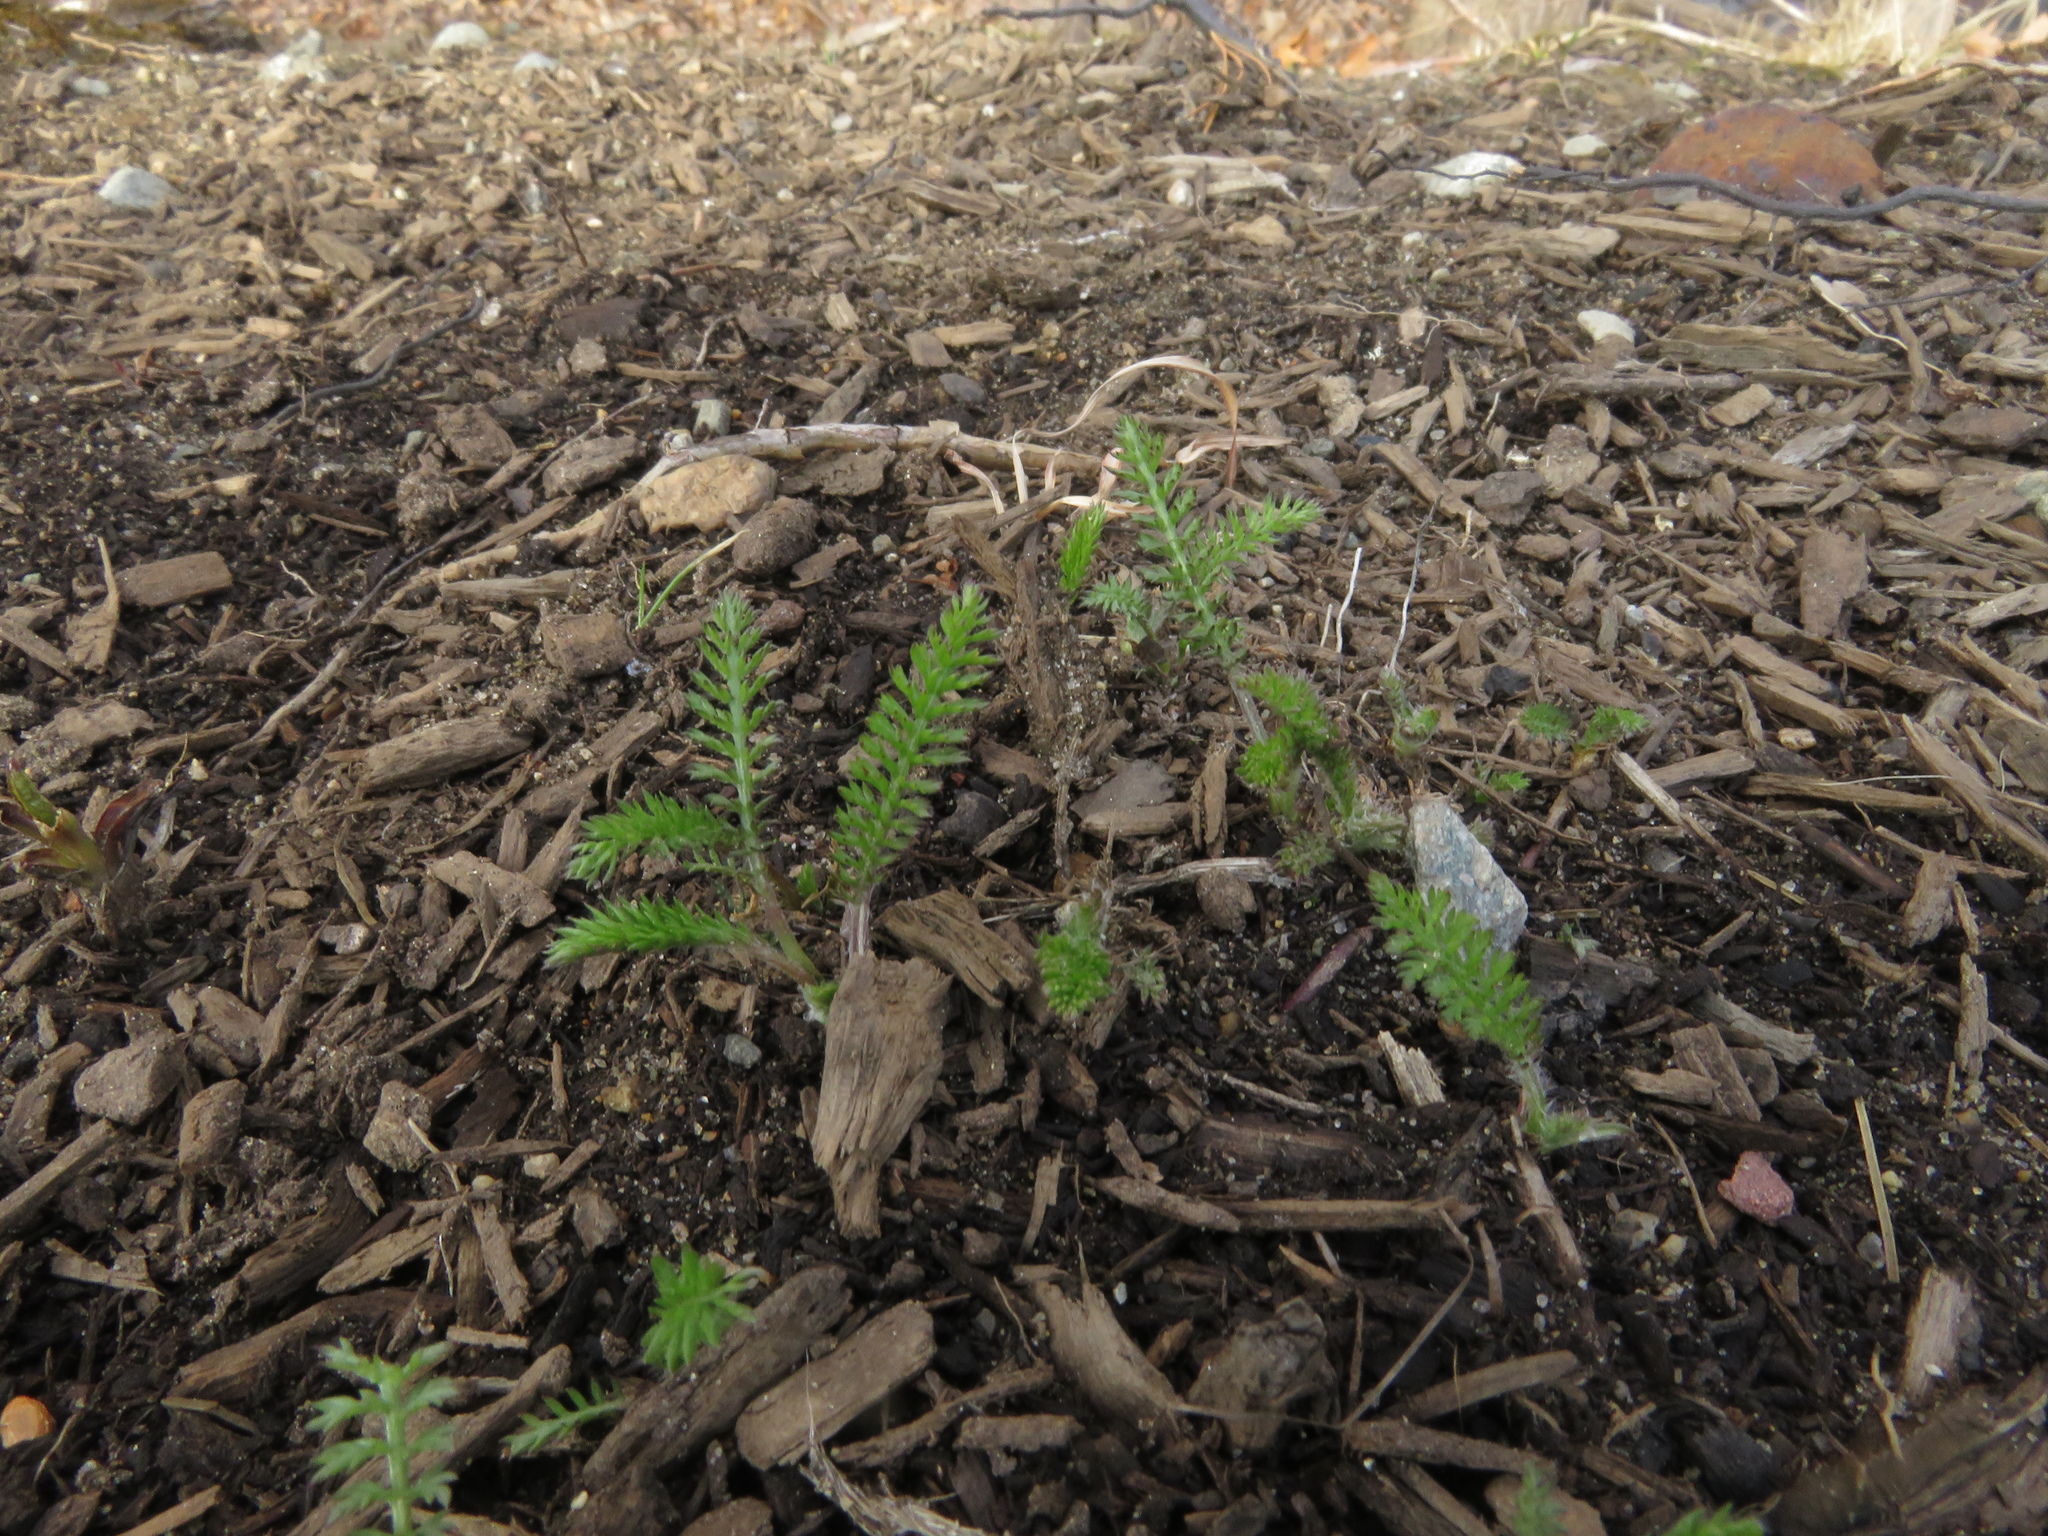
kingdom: Plantae
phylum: Tracheophyta
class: Magnoliopsida
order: Asterales
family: Asteraceae
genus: Achillea
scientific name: Achillea millefolium
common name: Yarrow
